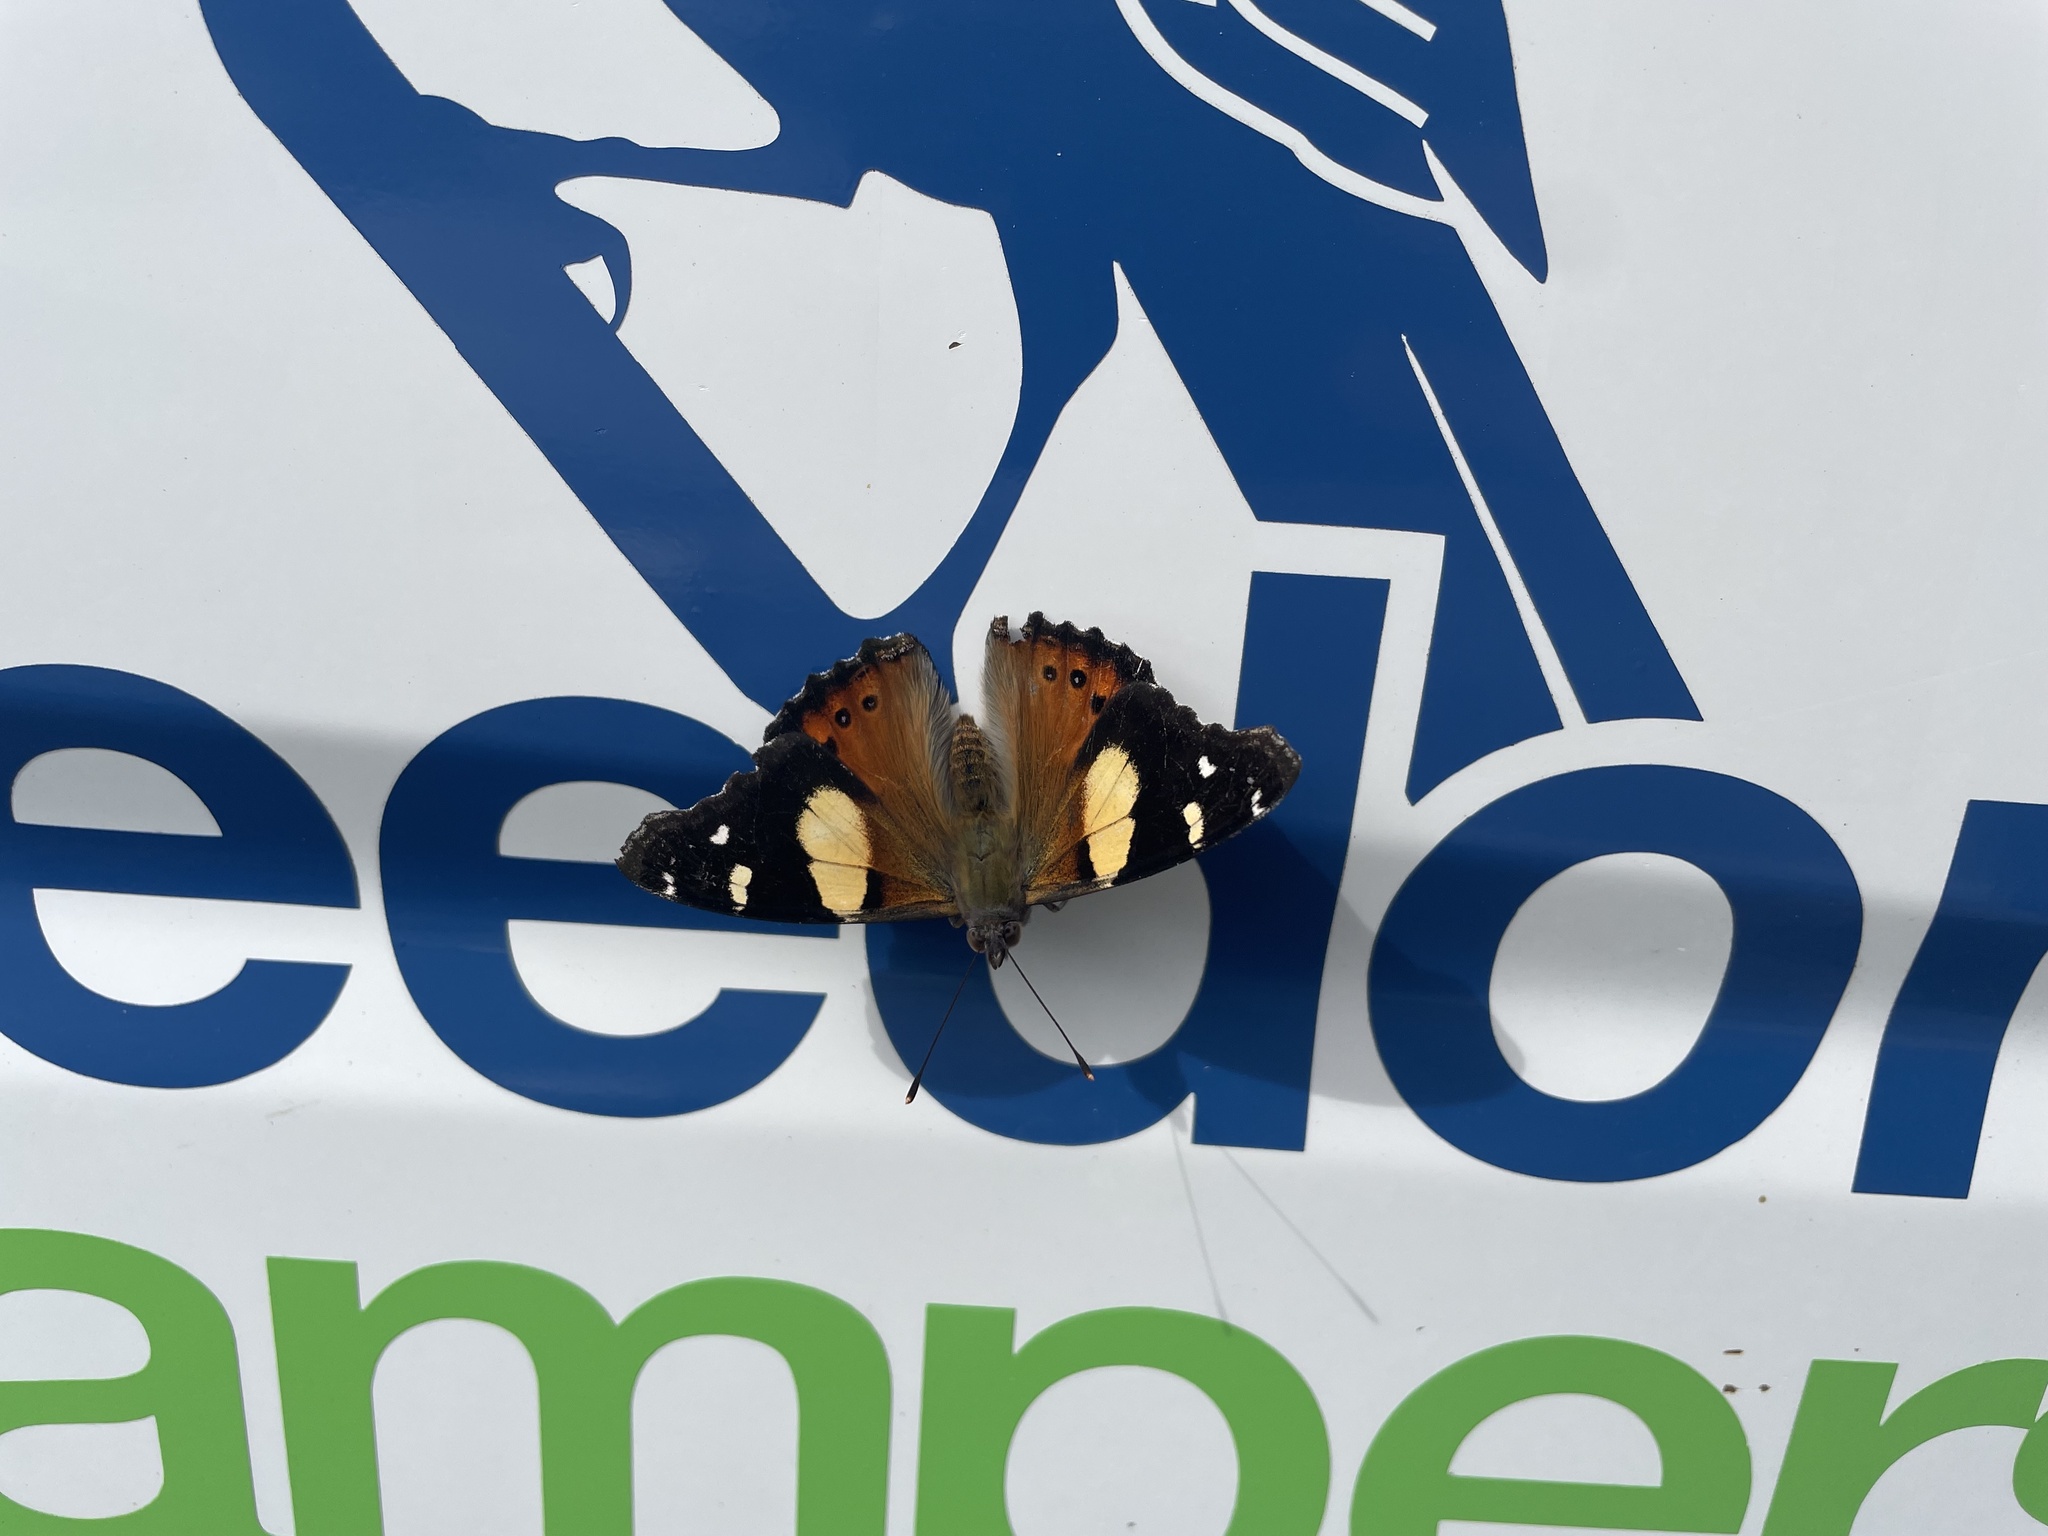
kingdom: Animalia
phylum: Arthropoda
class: Insecta
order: Lepidoptera
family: Nymphalidae
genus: Vanessa
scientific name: Vanessa itea
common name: Yellow admiral
